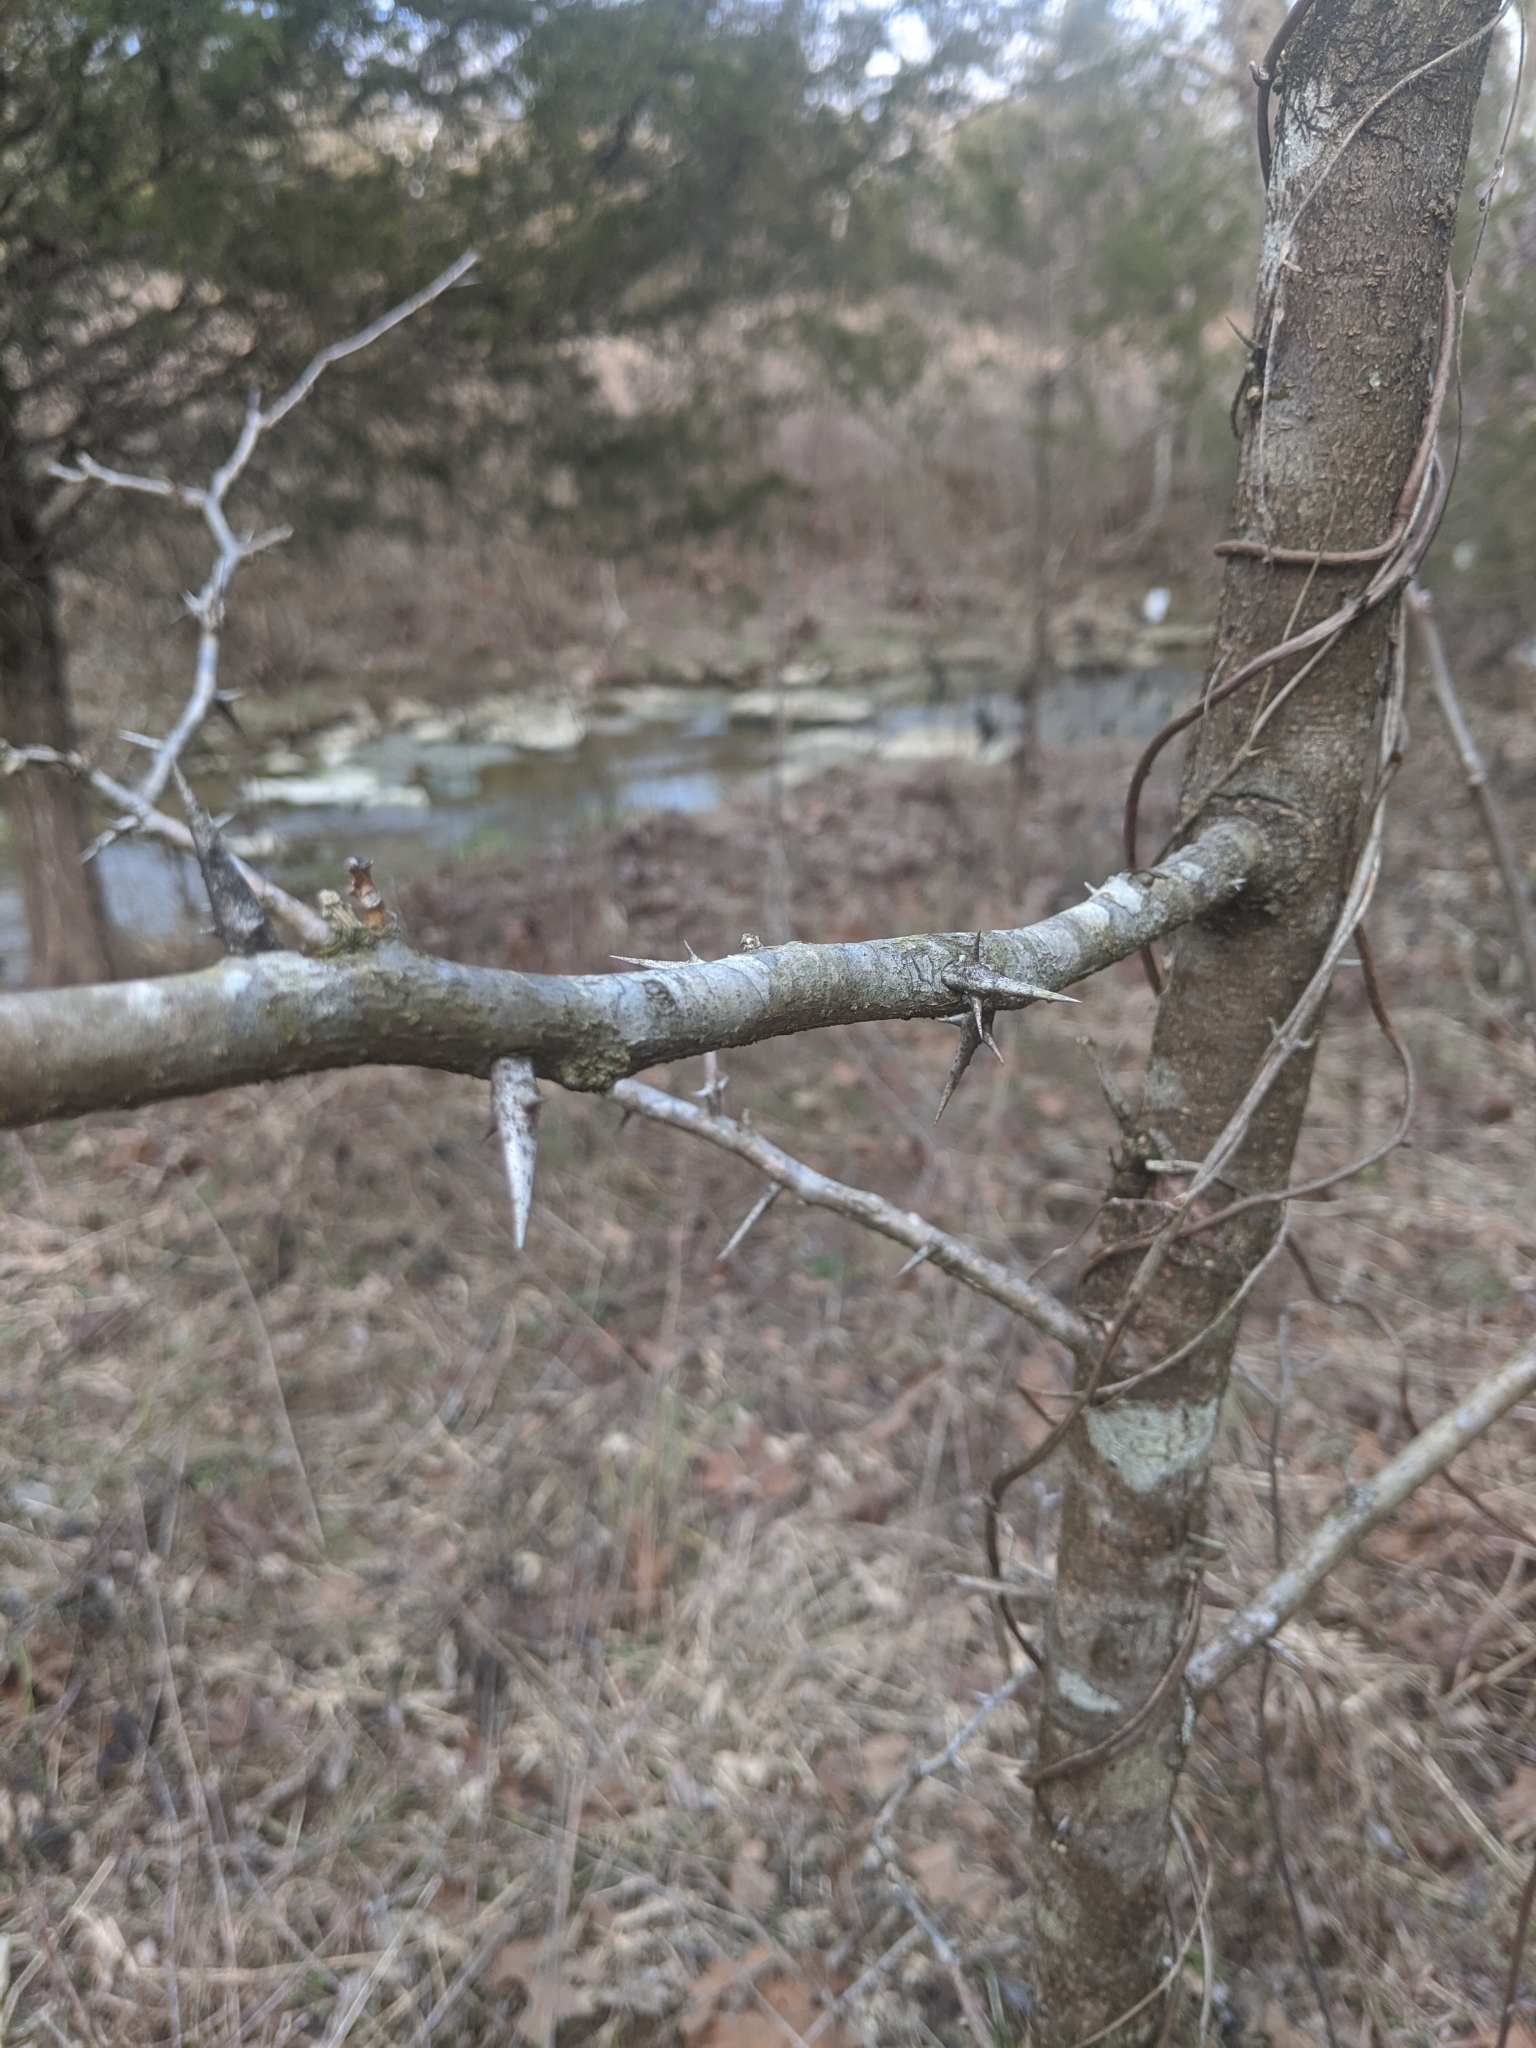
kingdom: Plantae
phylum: Tracheophyta
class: Magnoliopsida
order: Fabales
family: Fabaceae
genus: Gleditsia
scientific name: Gleditsia triacanthos
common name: Common honeylocust
